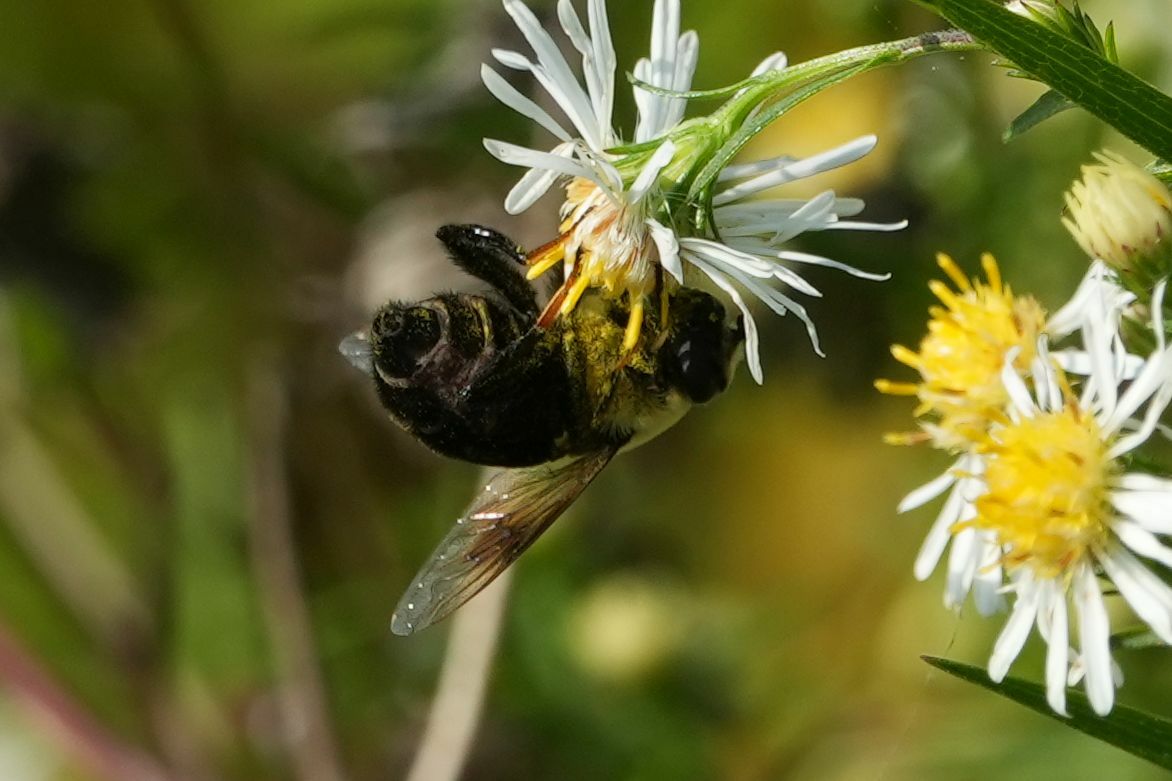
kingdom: Animalia
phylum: Arthropoda
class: Insecta
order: Diptera
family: Syrphidae
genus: Eristalis
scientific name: Eristalis flavipes
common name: Orange-legged drone fly
